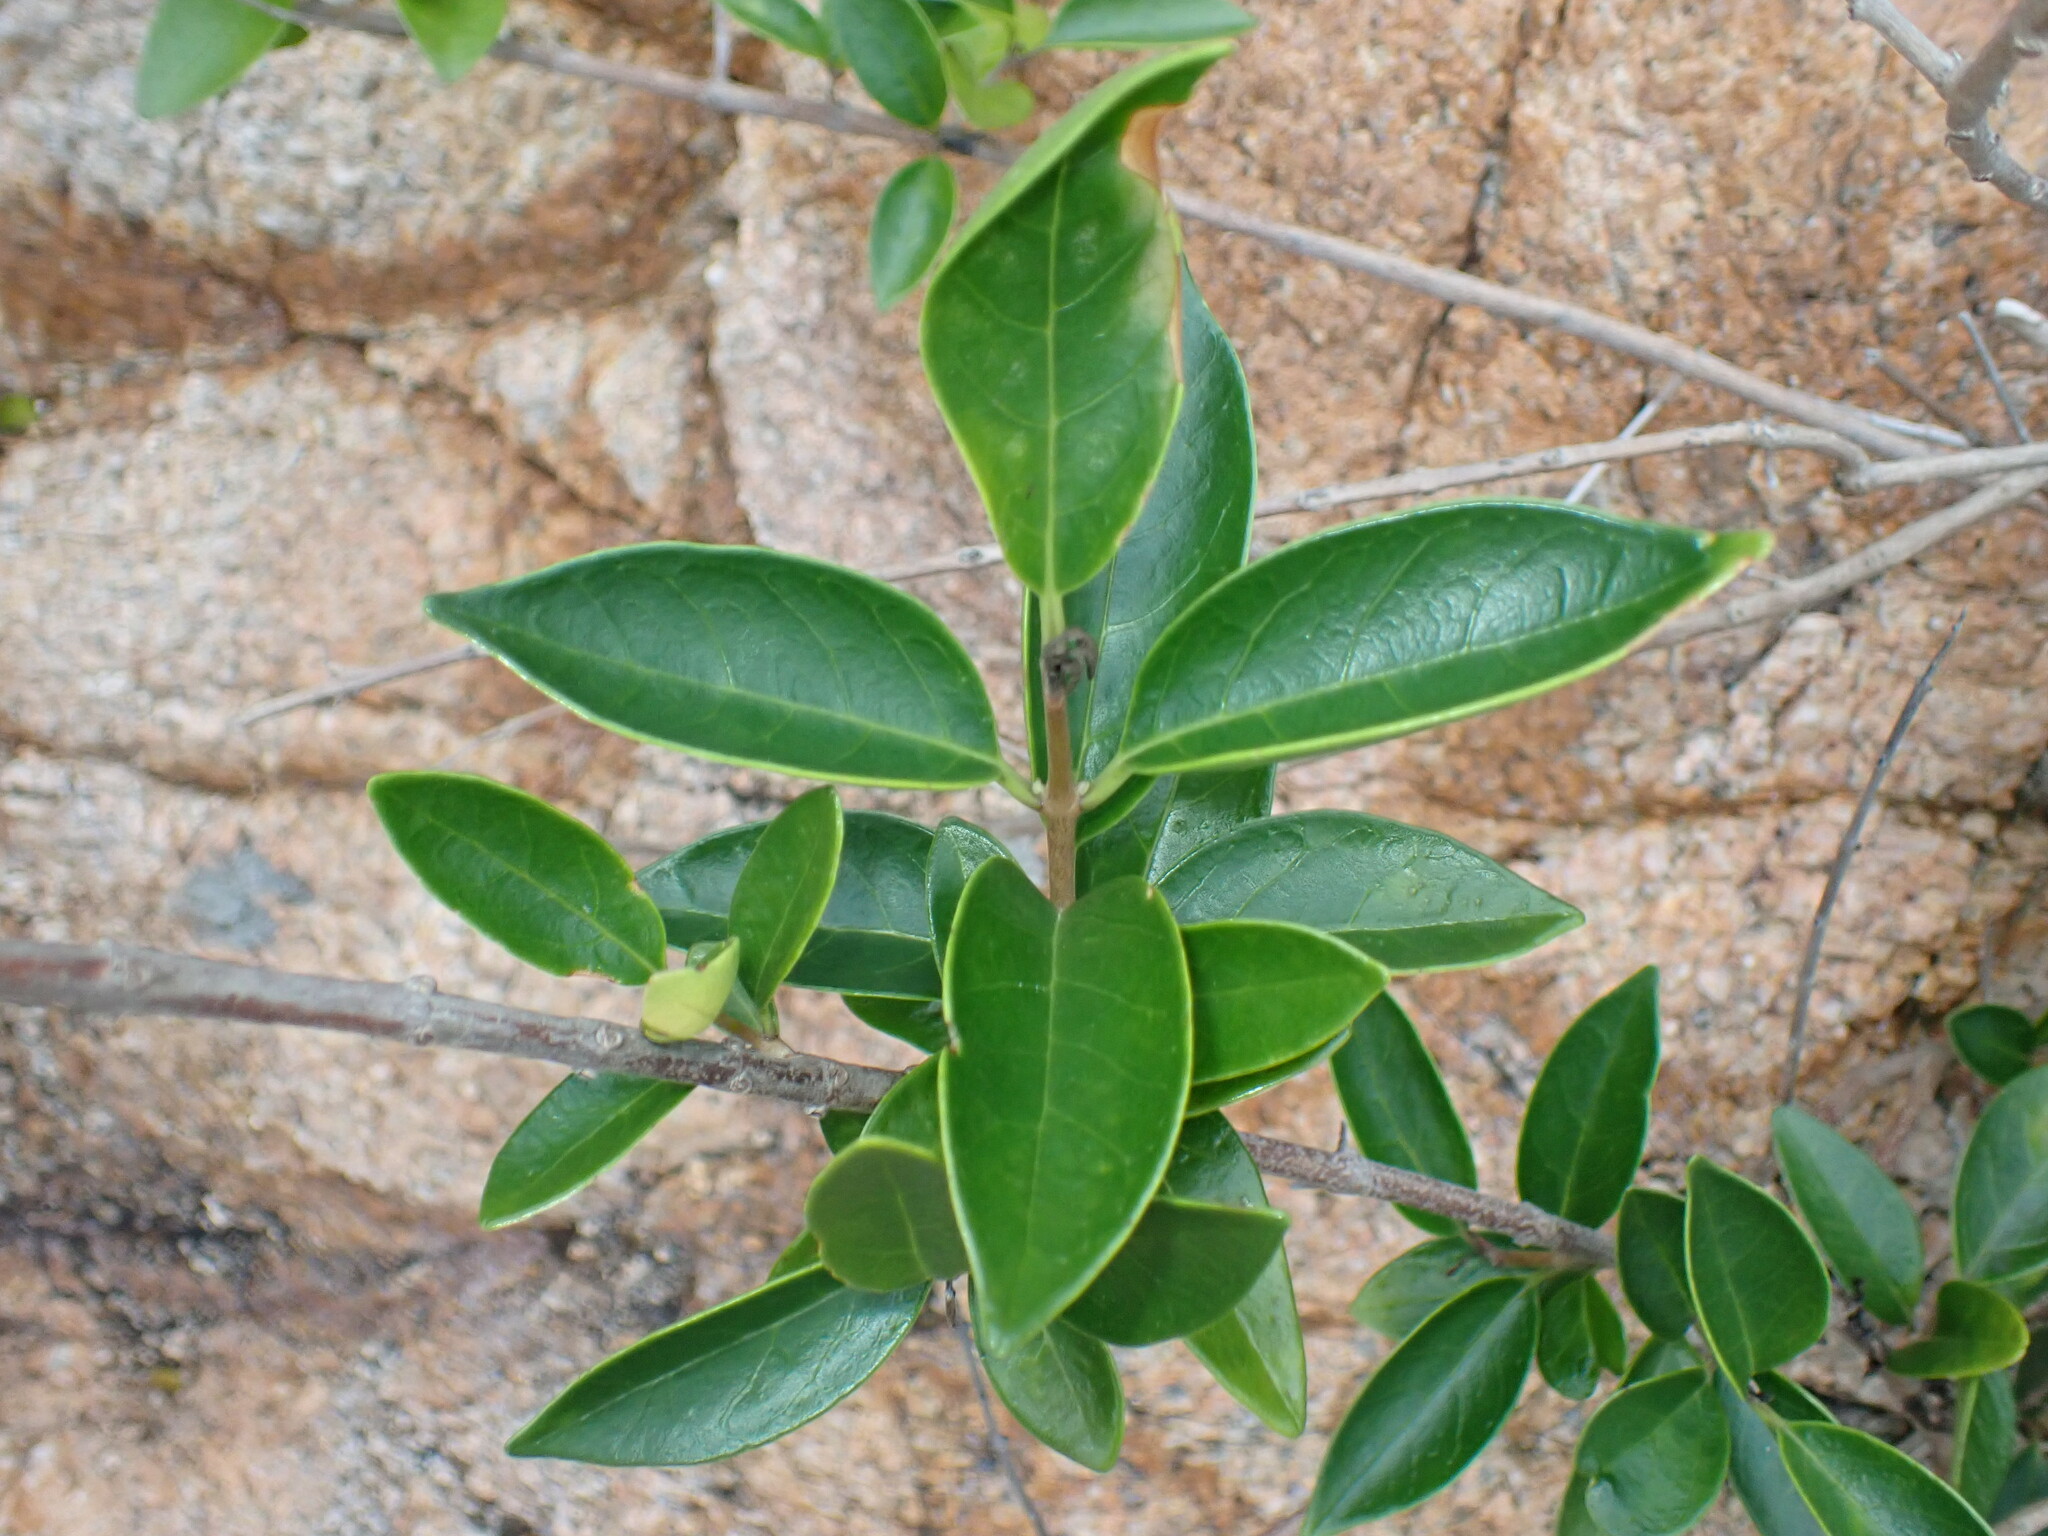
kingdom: Plantae
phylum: Tracheophyta
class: Magnoliopsida
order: Lamiales
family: Lamiaceae
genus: Volkameria
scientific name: Volkameria inermis
